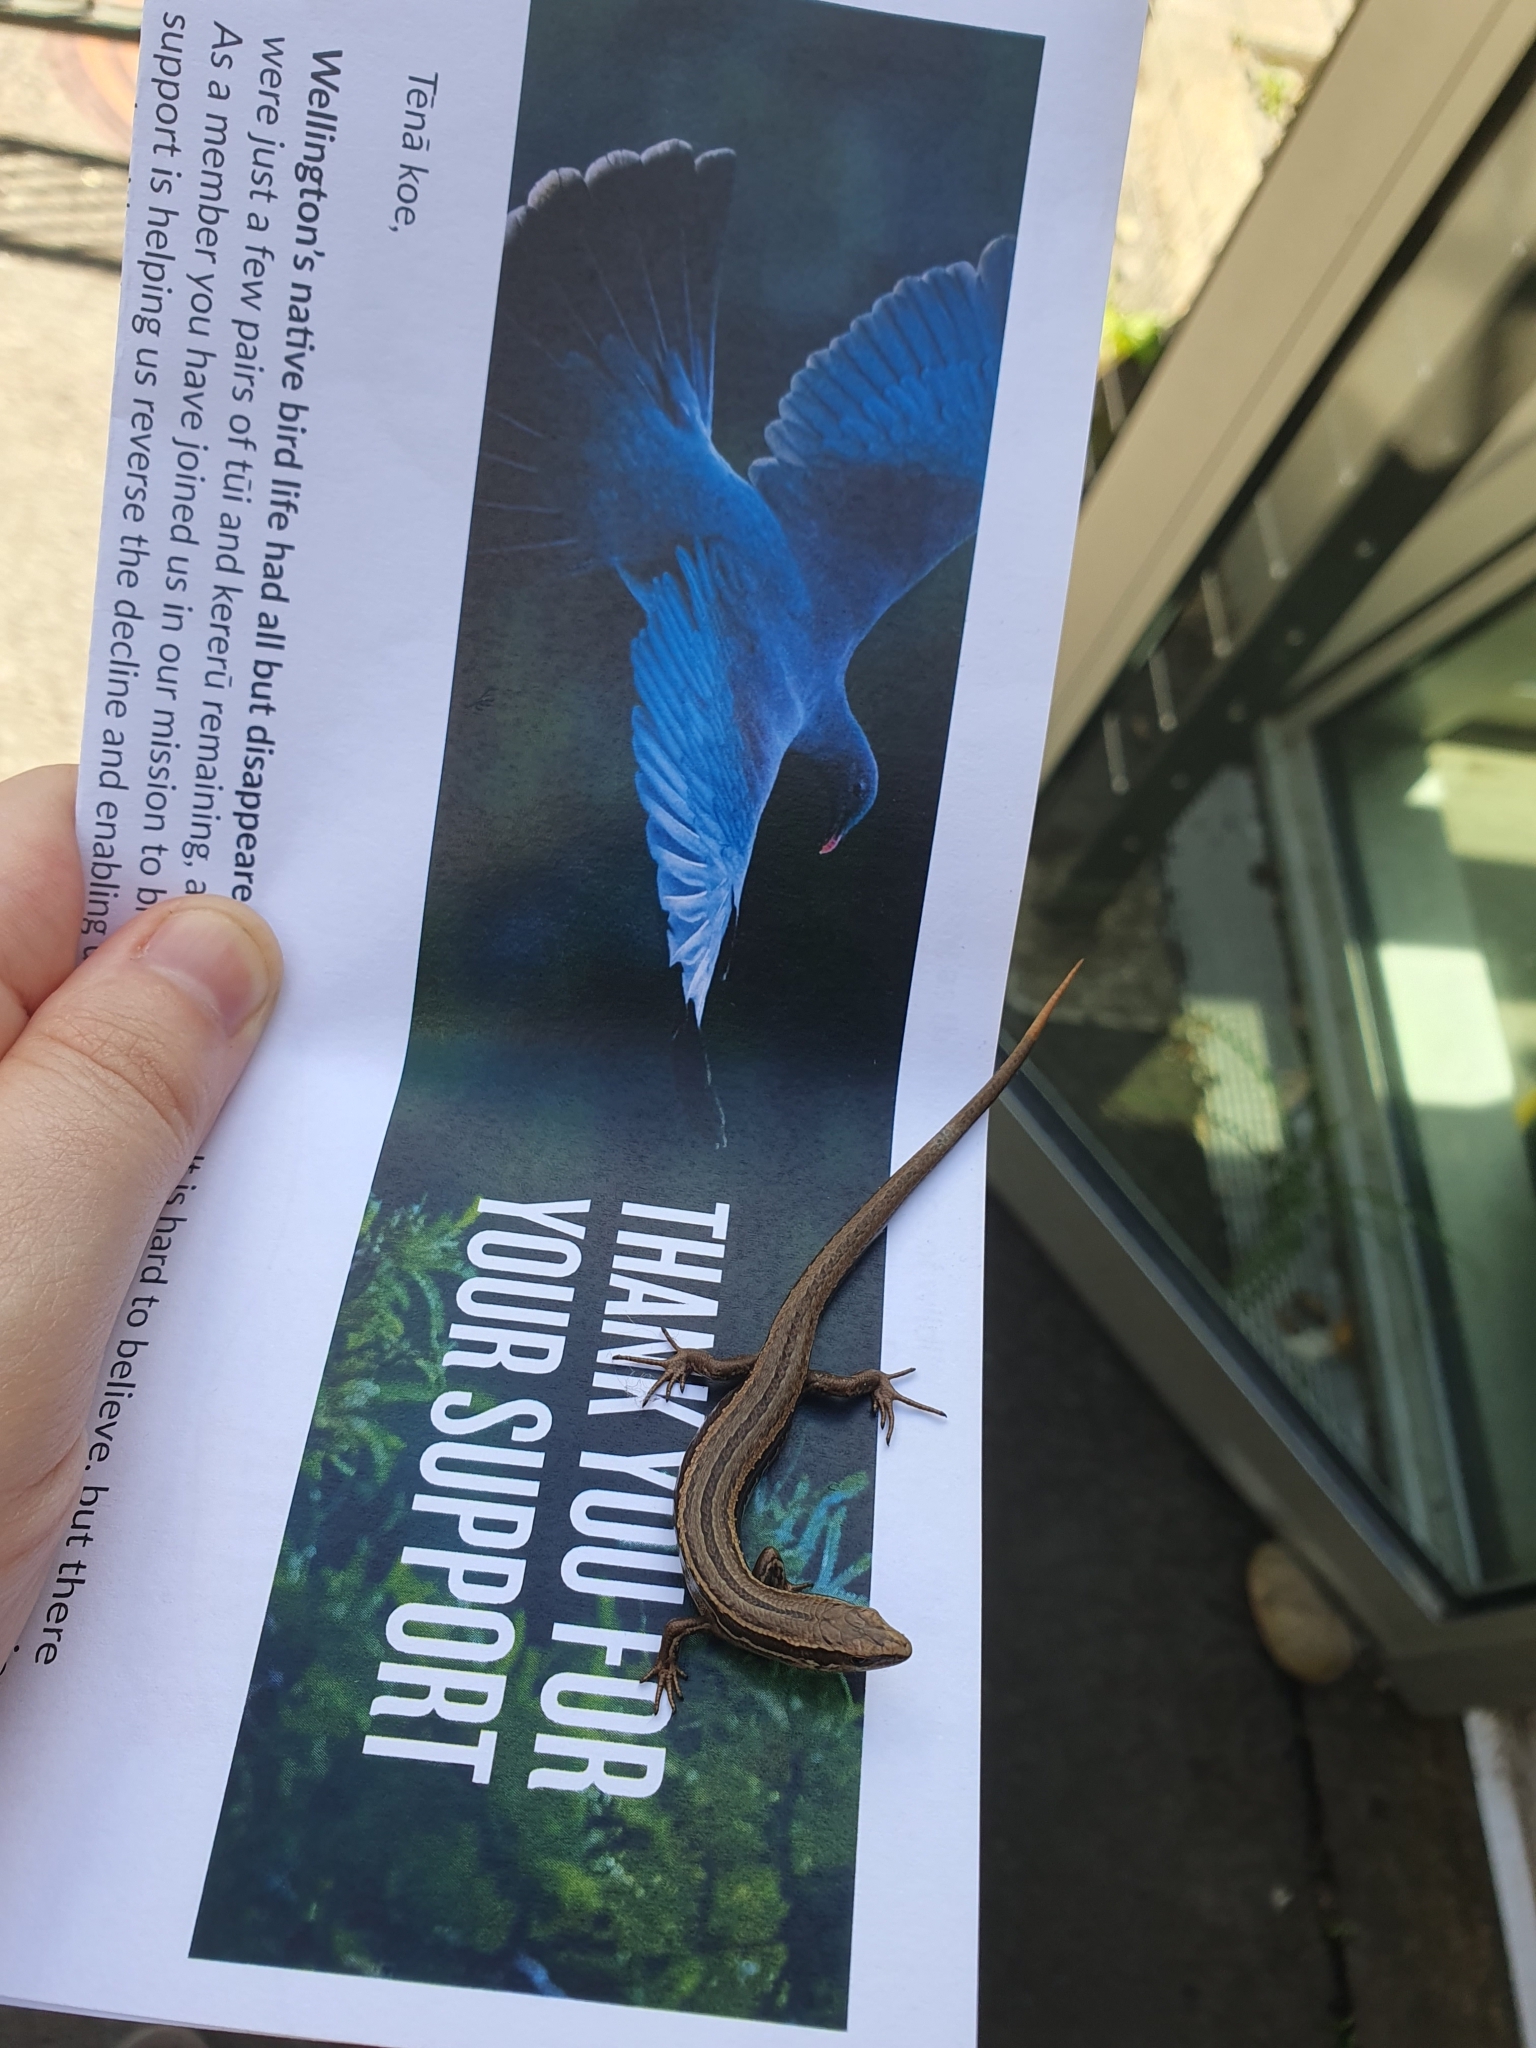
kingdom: Animalia
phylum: Chordata
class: Squamata
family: Scincidae
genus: Oligosoma
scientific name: Oligosoma polychroma
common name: Common new zealand skink
